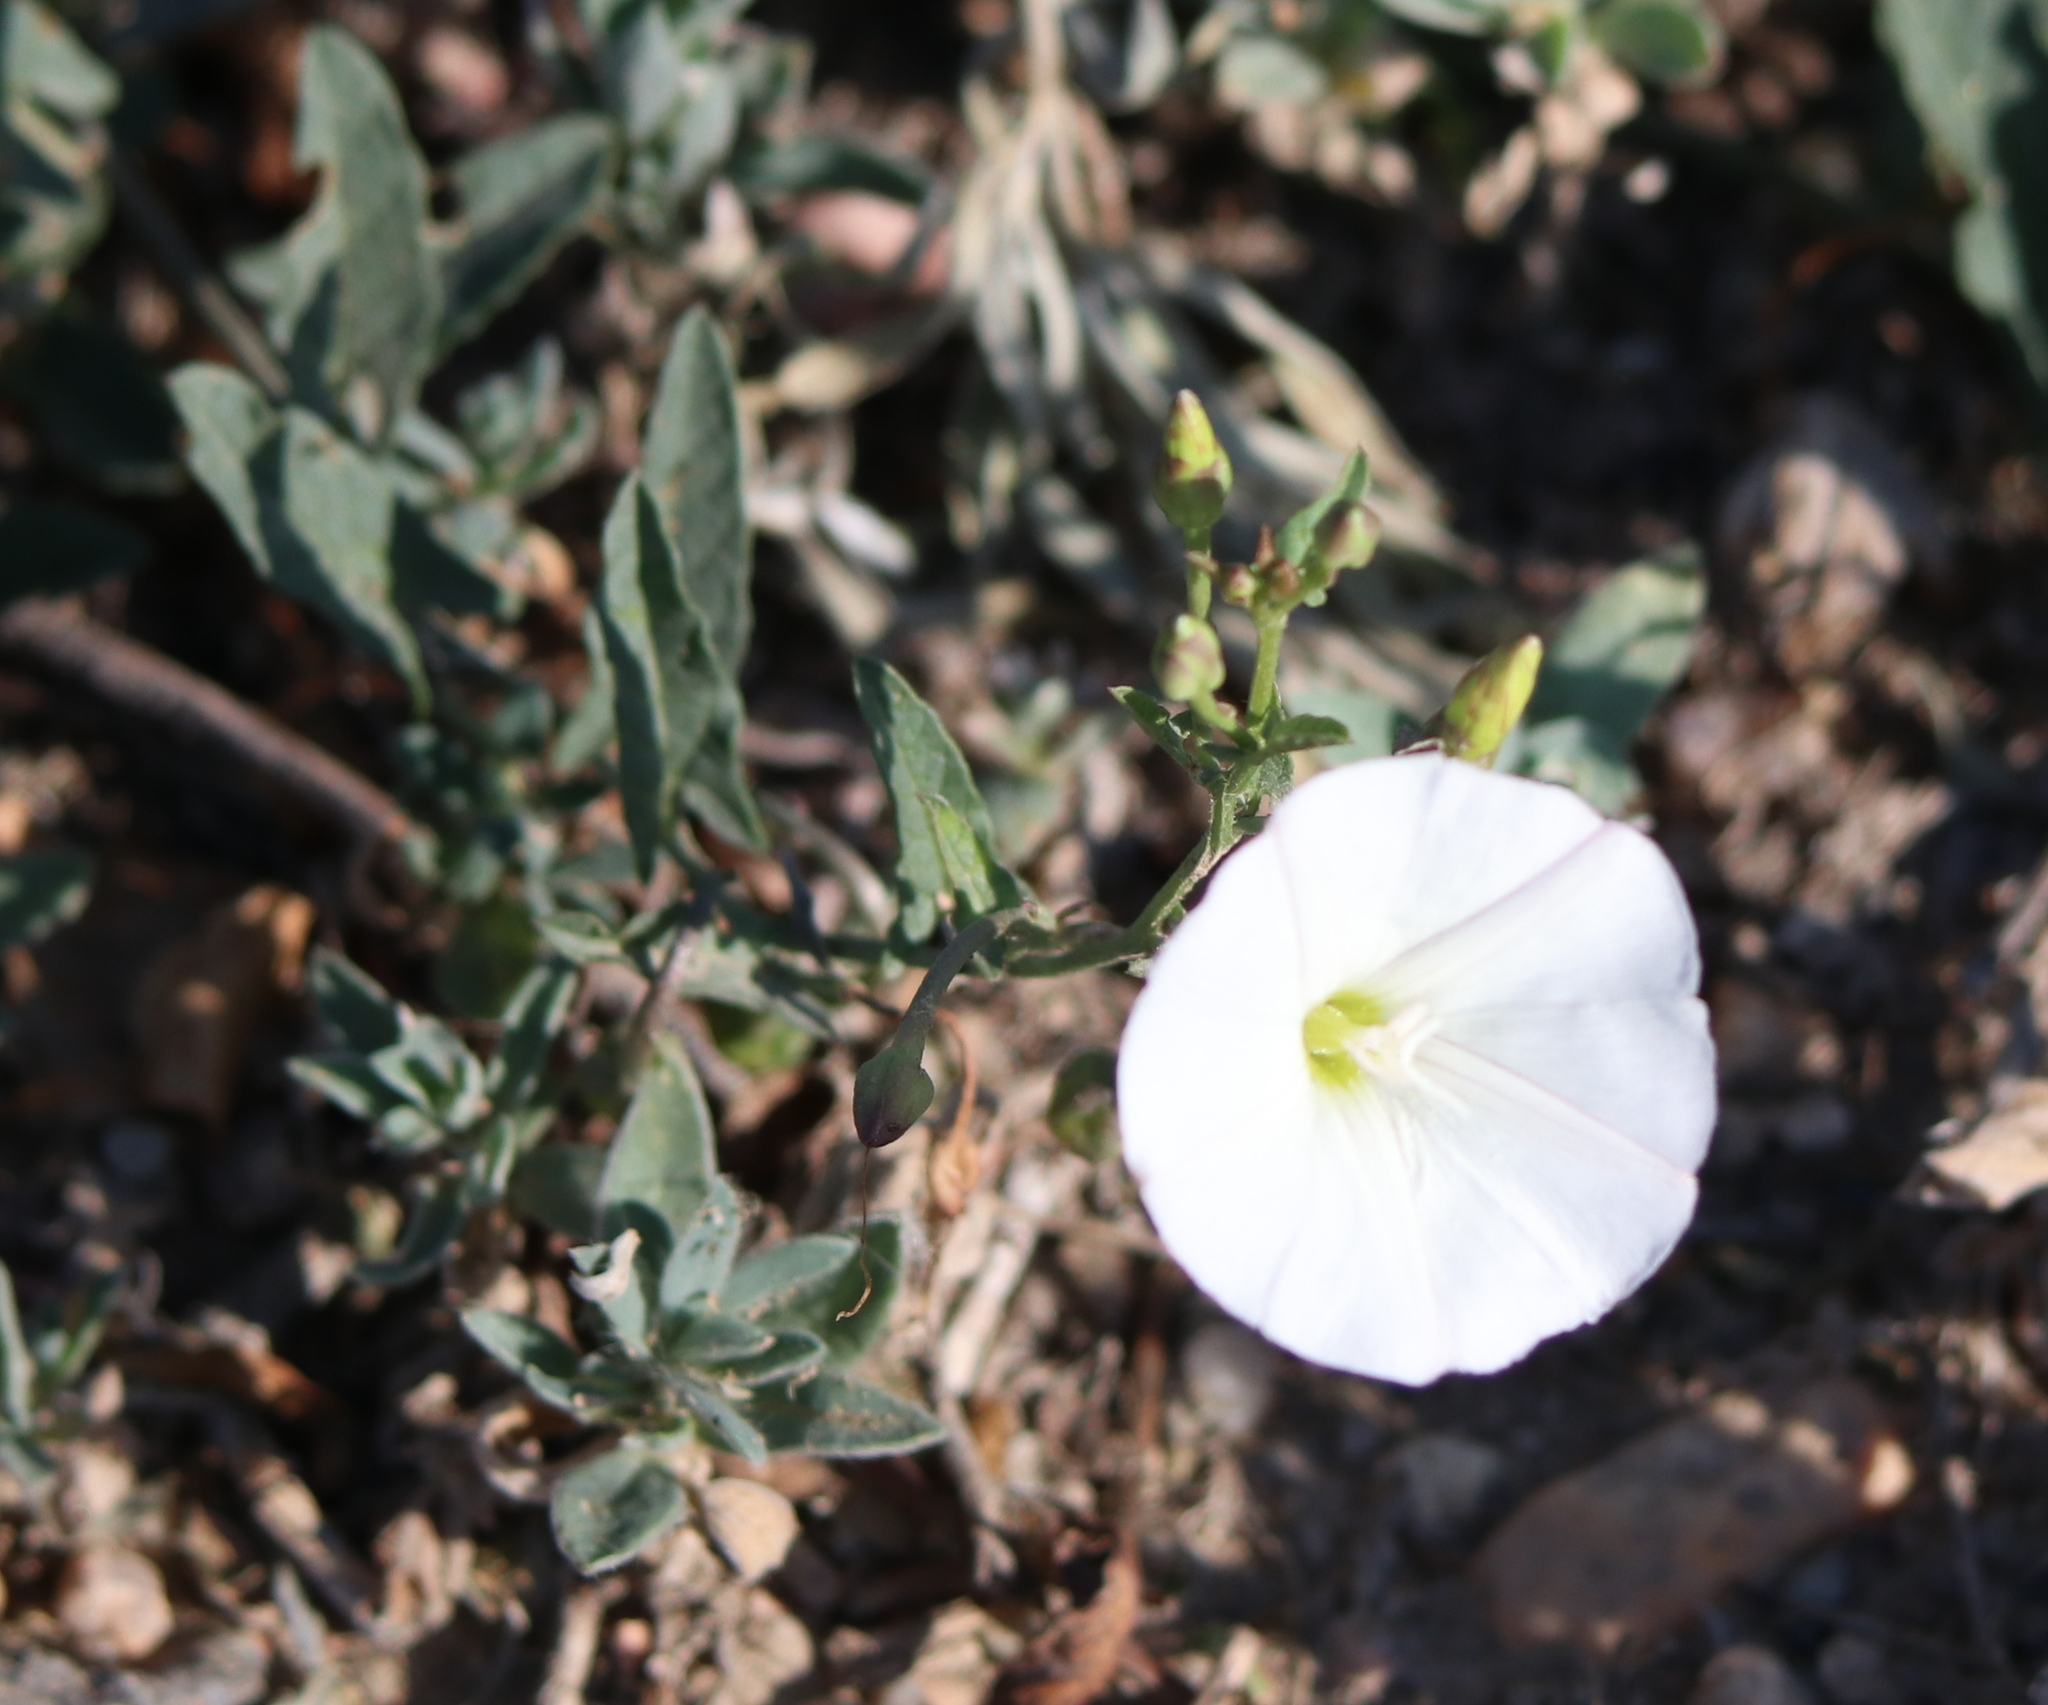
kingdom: Plantae
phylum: Tracheophyta
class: Magnoliopsida
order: Solanales
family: Convolvulaceae
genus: Convolvulus
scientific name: Convolvulus arvensis
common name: Field bindweed
